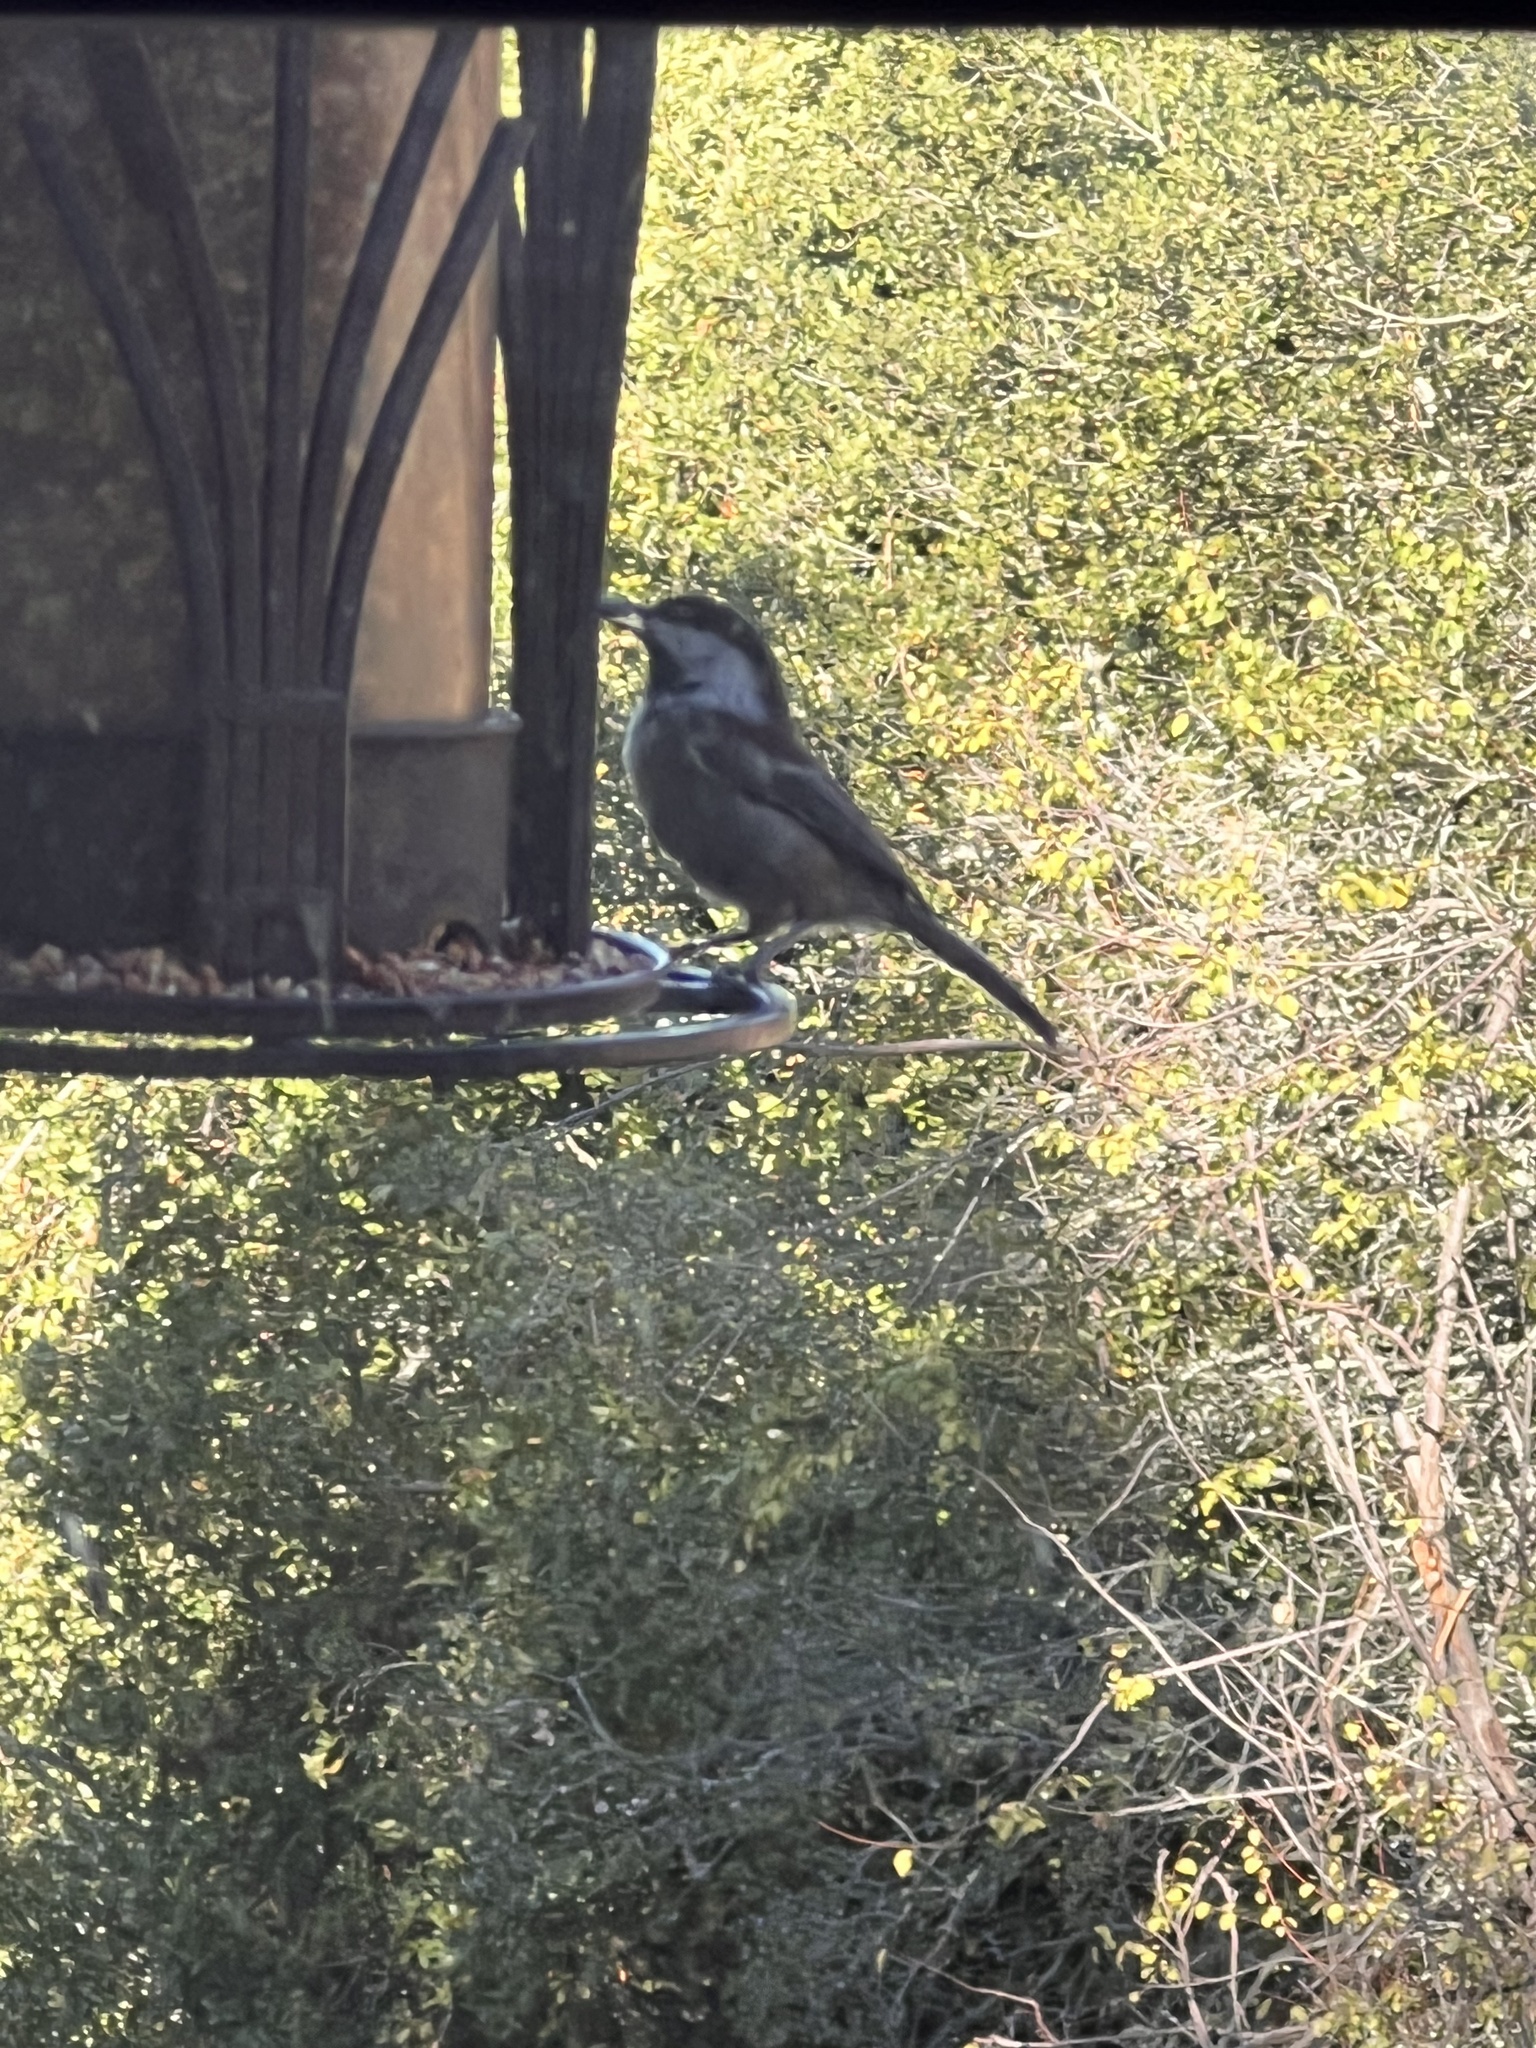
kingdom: Animalia
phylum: Chordata
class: Aves
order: Passeriformes
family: Paridae
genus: Poecile
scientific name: Poecile rufescens
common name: Chestnut-backed chickadee
